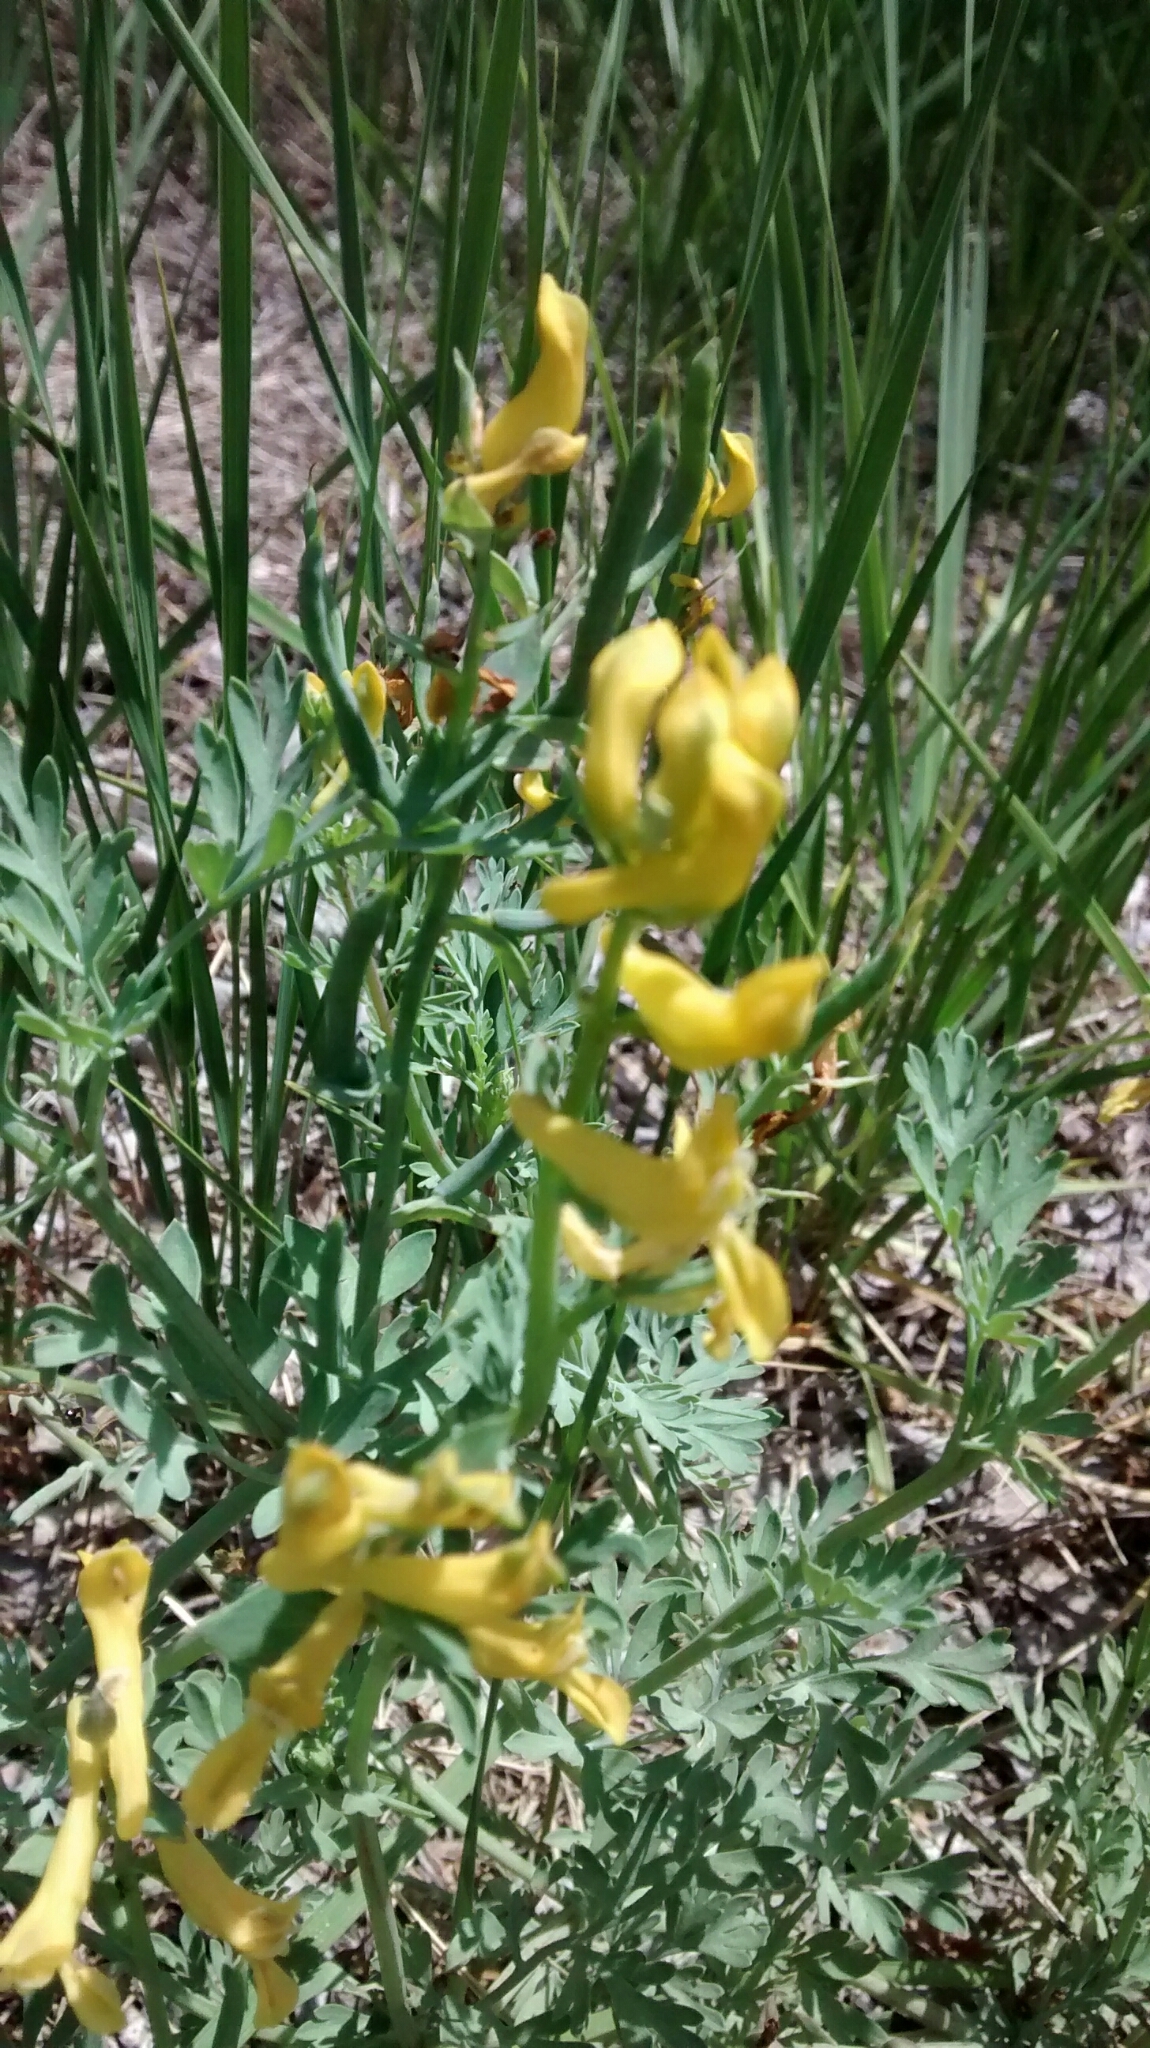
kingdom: Plantae
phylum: Tracheophyta
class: Magnoliopsida
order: Ranunculales
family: Papaveraceae
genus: Corydalis
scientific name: Corydalis aurea
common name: Golden corydalis
